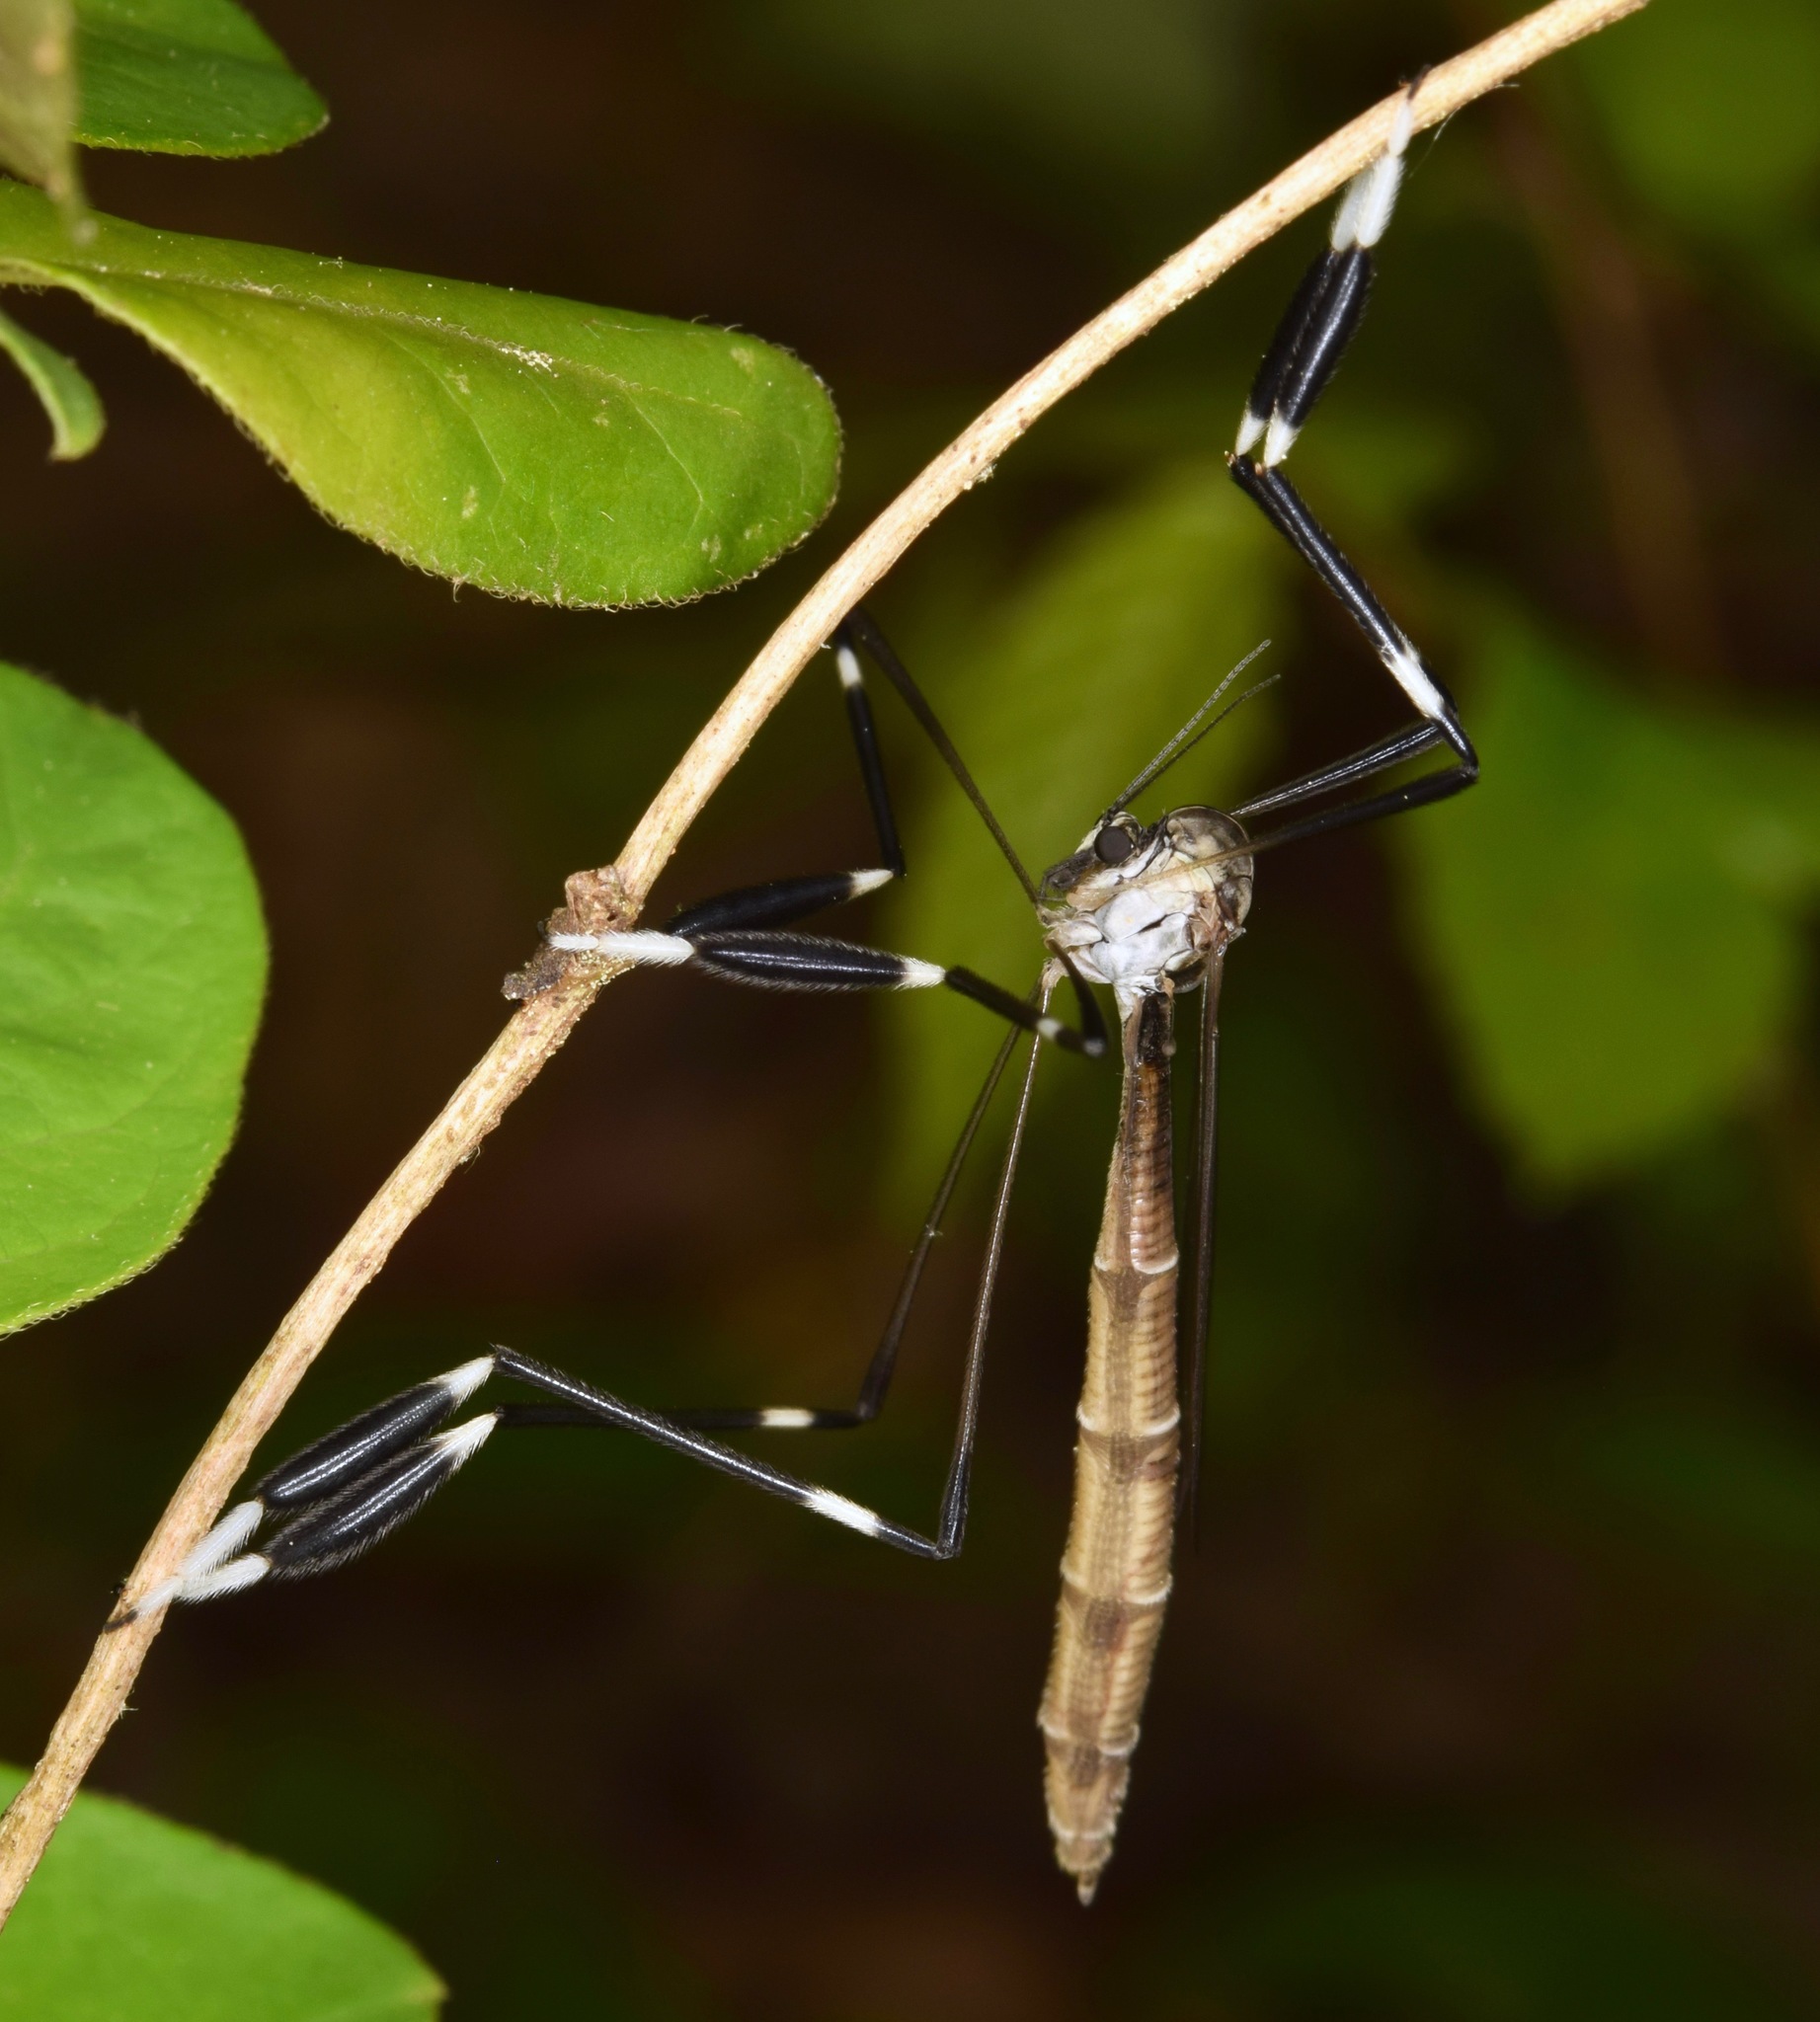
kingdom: Animalia
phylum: Arthropoda
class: Insecta
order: Diptera
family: Ptychopteridae
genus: Bittacomorpha
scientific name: Bittacomorpha clavipes
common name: Eastern phantom crane fly
